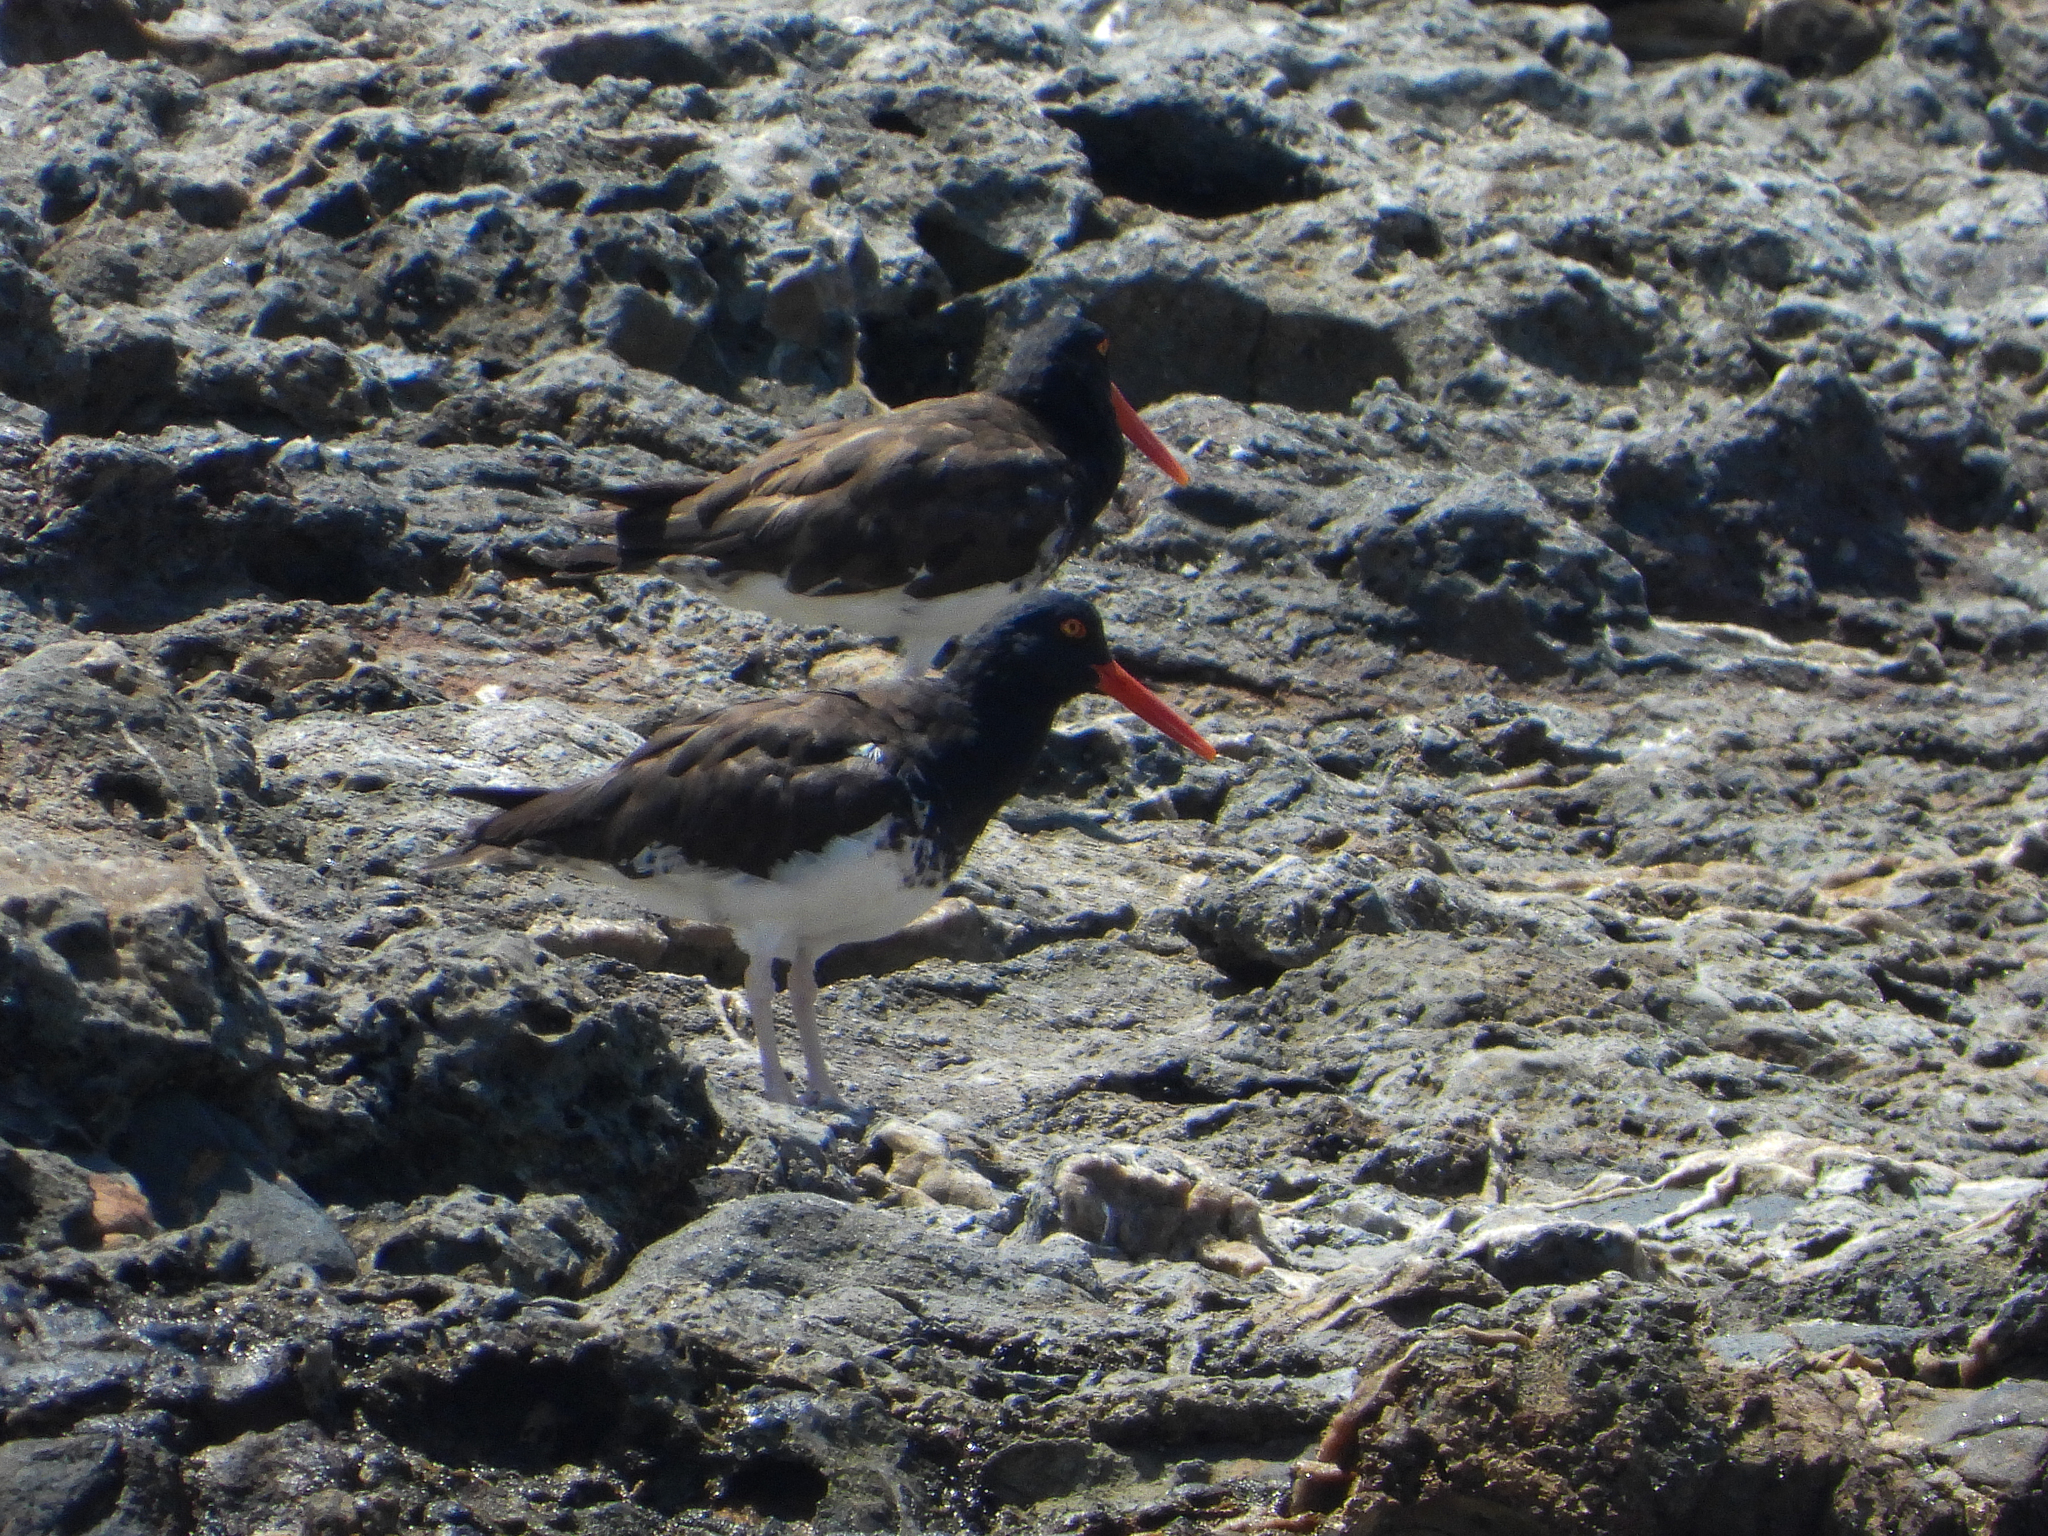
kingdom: Animalia
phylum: Chordata
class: Aves
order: Charadriiformes
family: Haematopodidae
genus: Haematopus
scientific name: Haematopus
